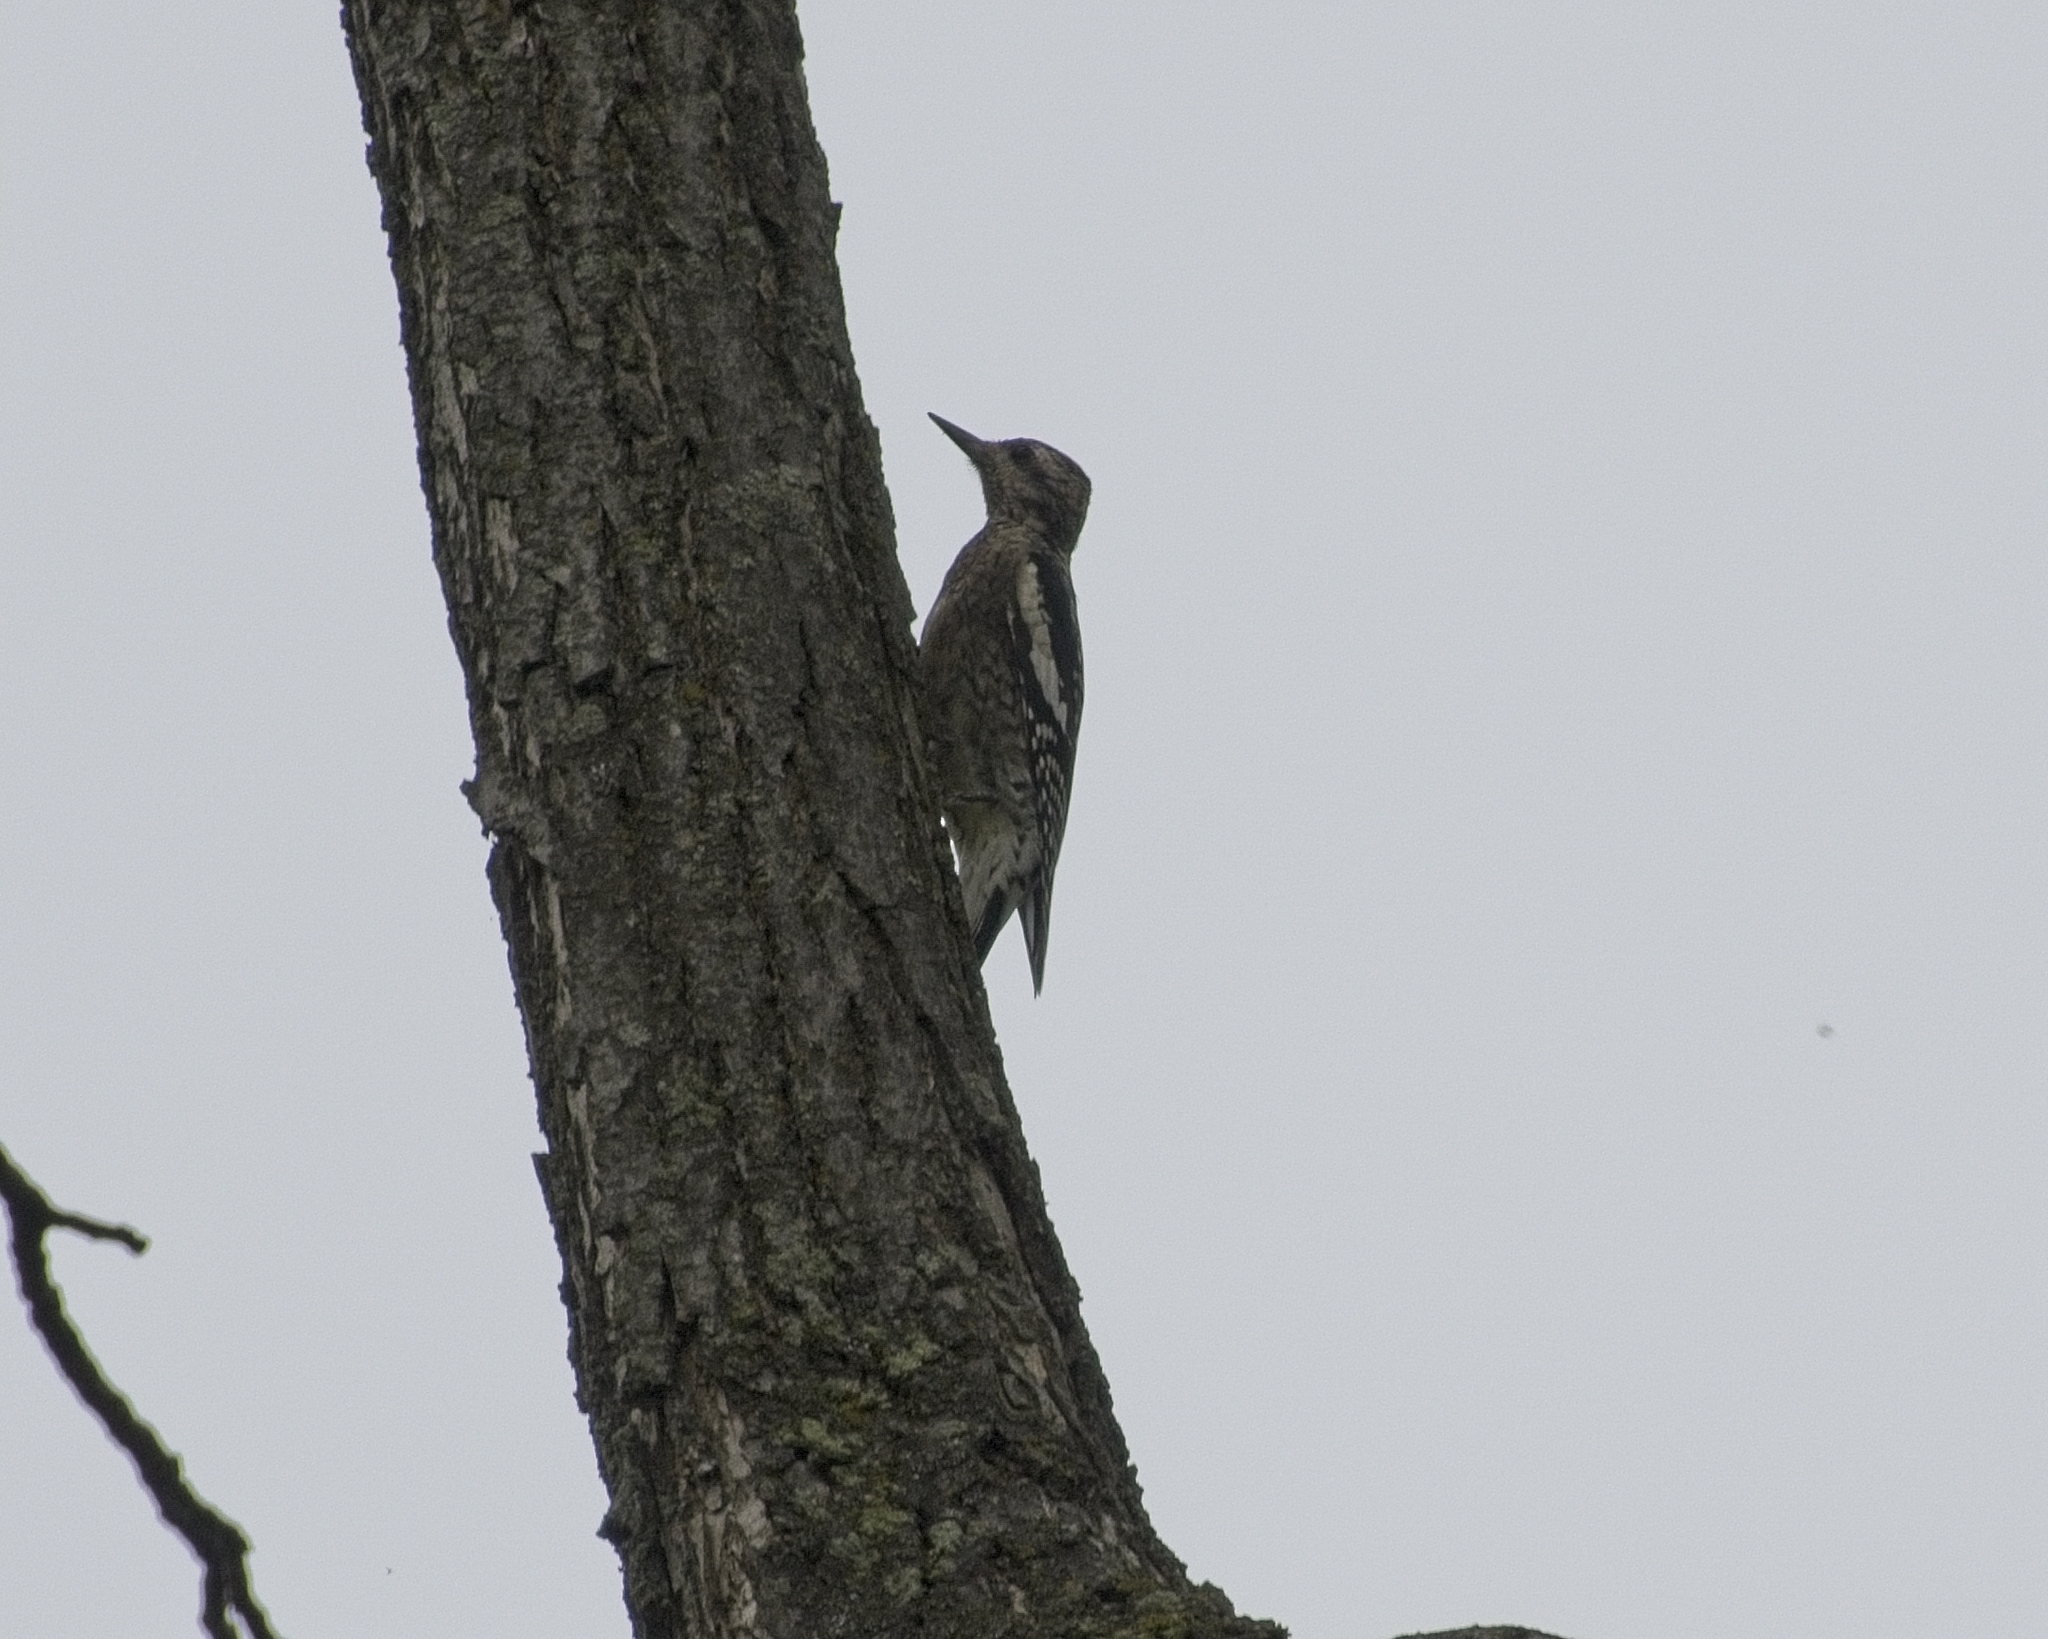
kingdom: Animalia
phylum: Chordata
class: Aves
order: Piciformes
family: Picidae
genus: Sphyrapicus
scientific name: Sphyrapicus varius
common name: Yellow-bellied sapsucker
